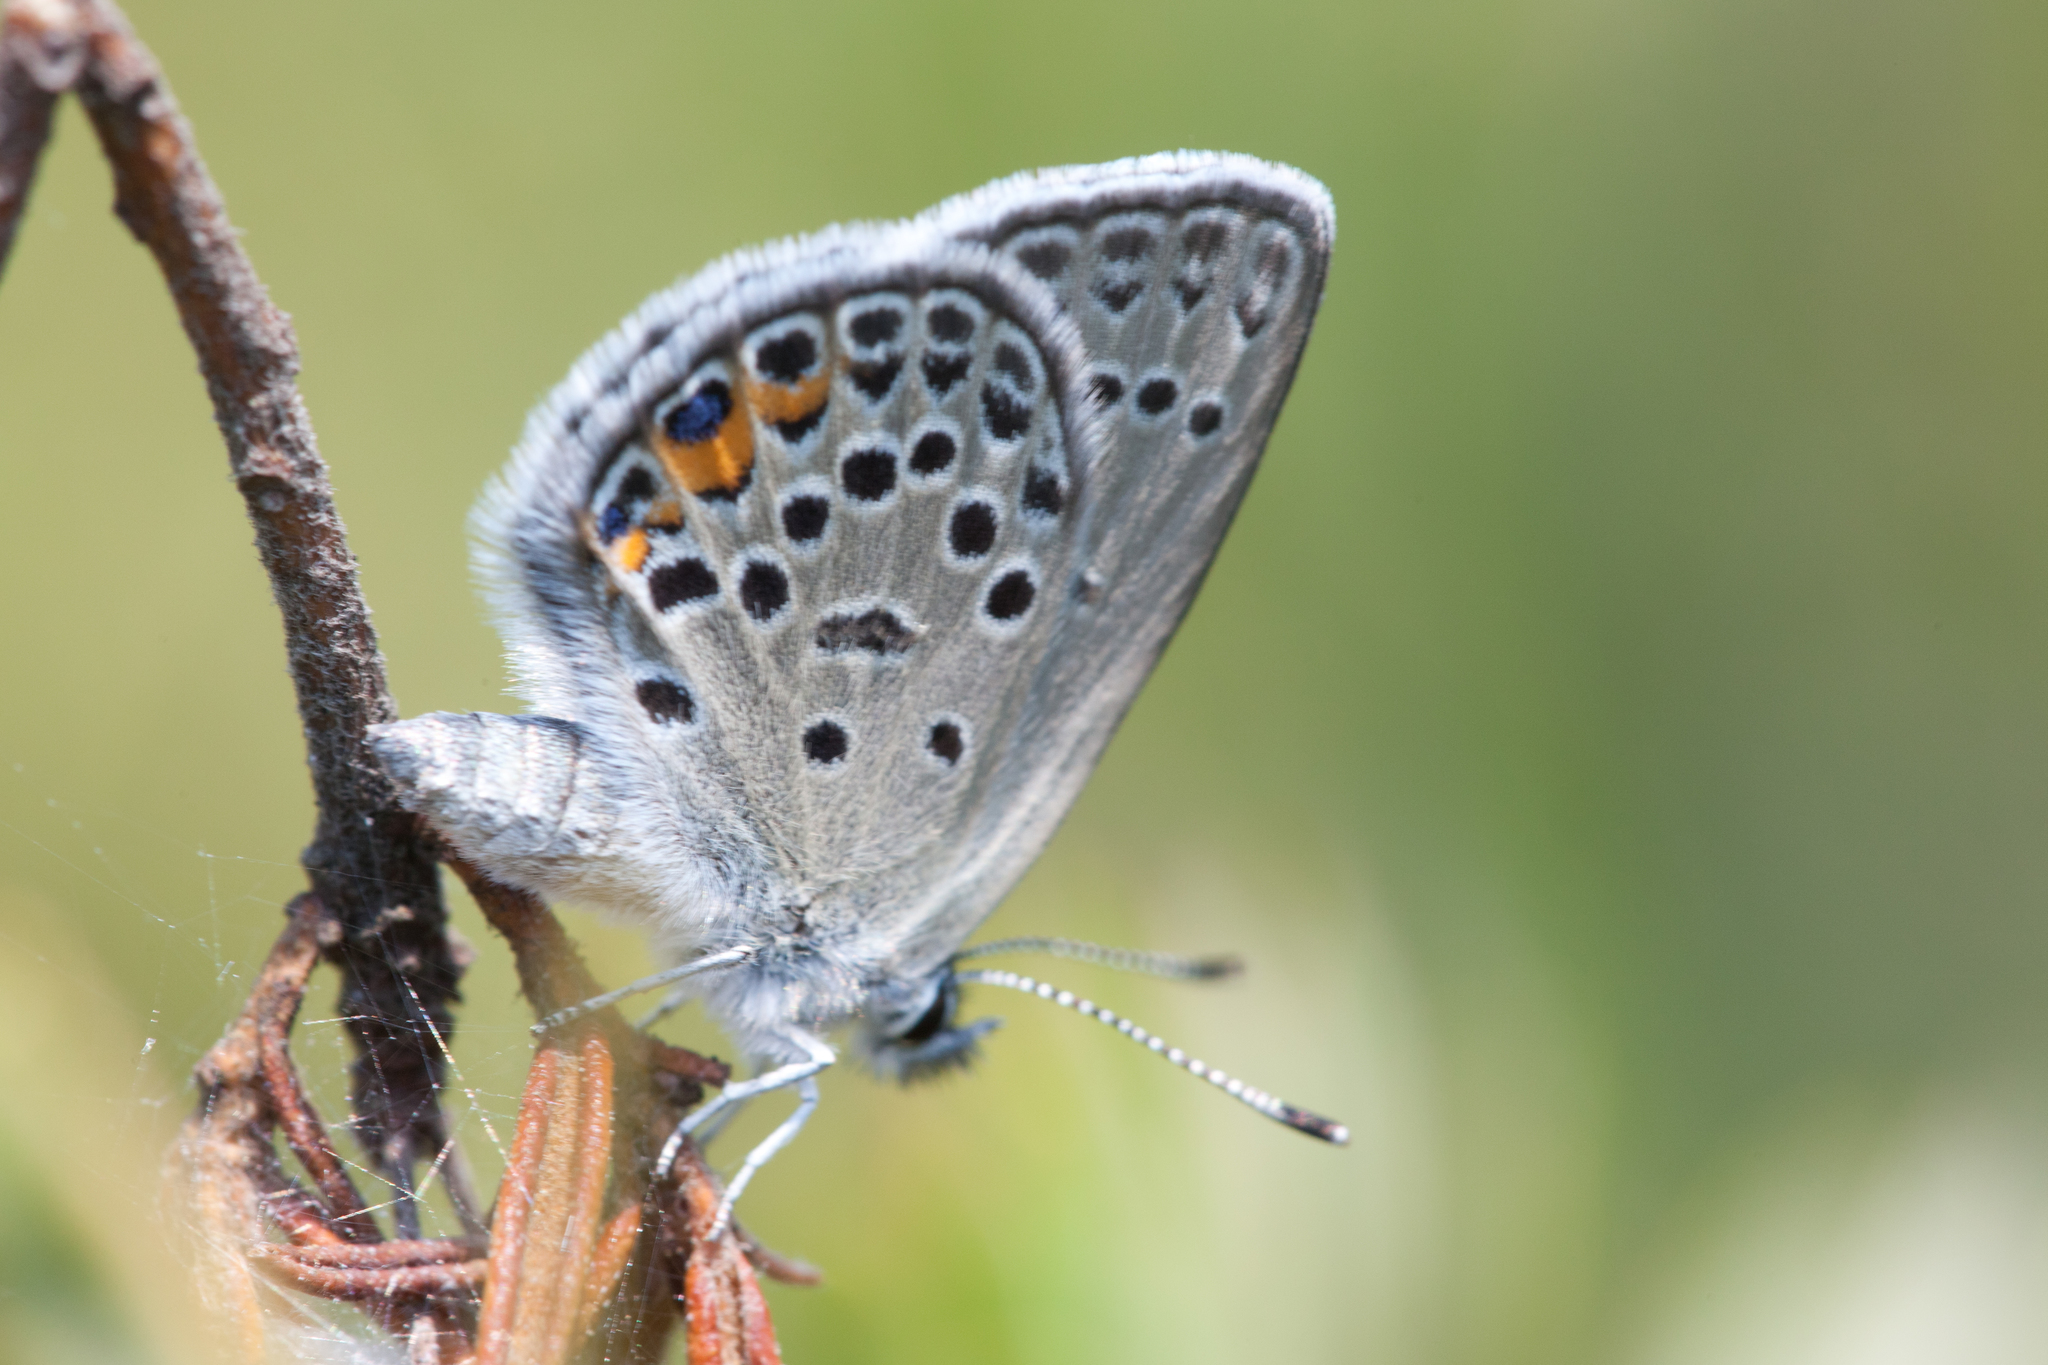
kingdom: Animalia
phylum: Arthropoda
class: Insecta
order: Lepidoptera
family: Lycaenidae
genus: Vacciniina
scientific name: Vacciniina optilete
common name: Cranberry blue
